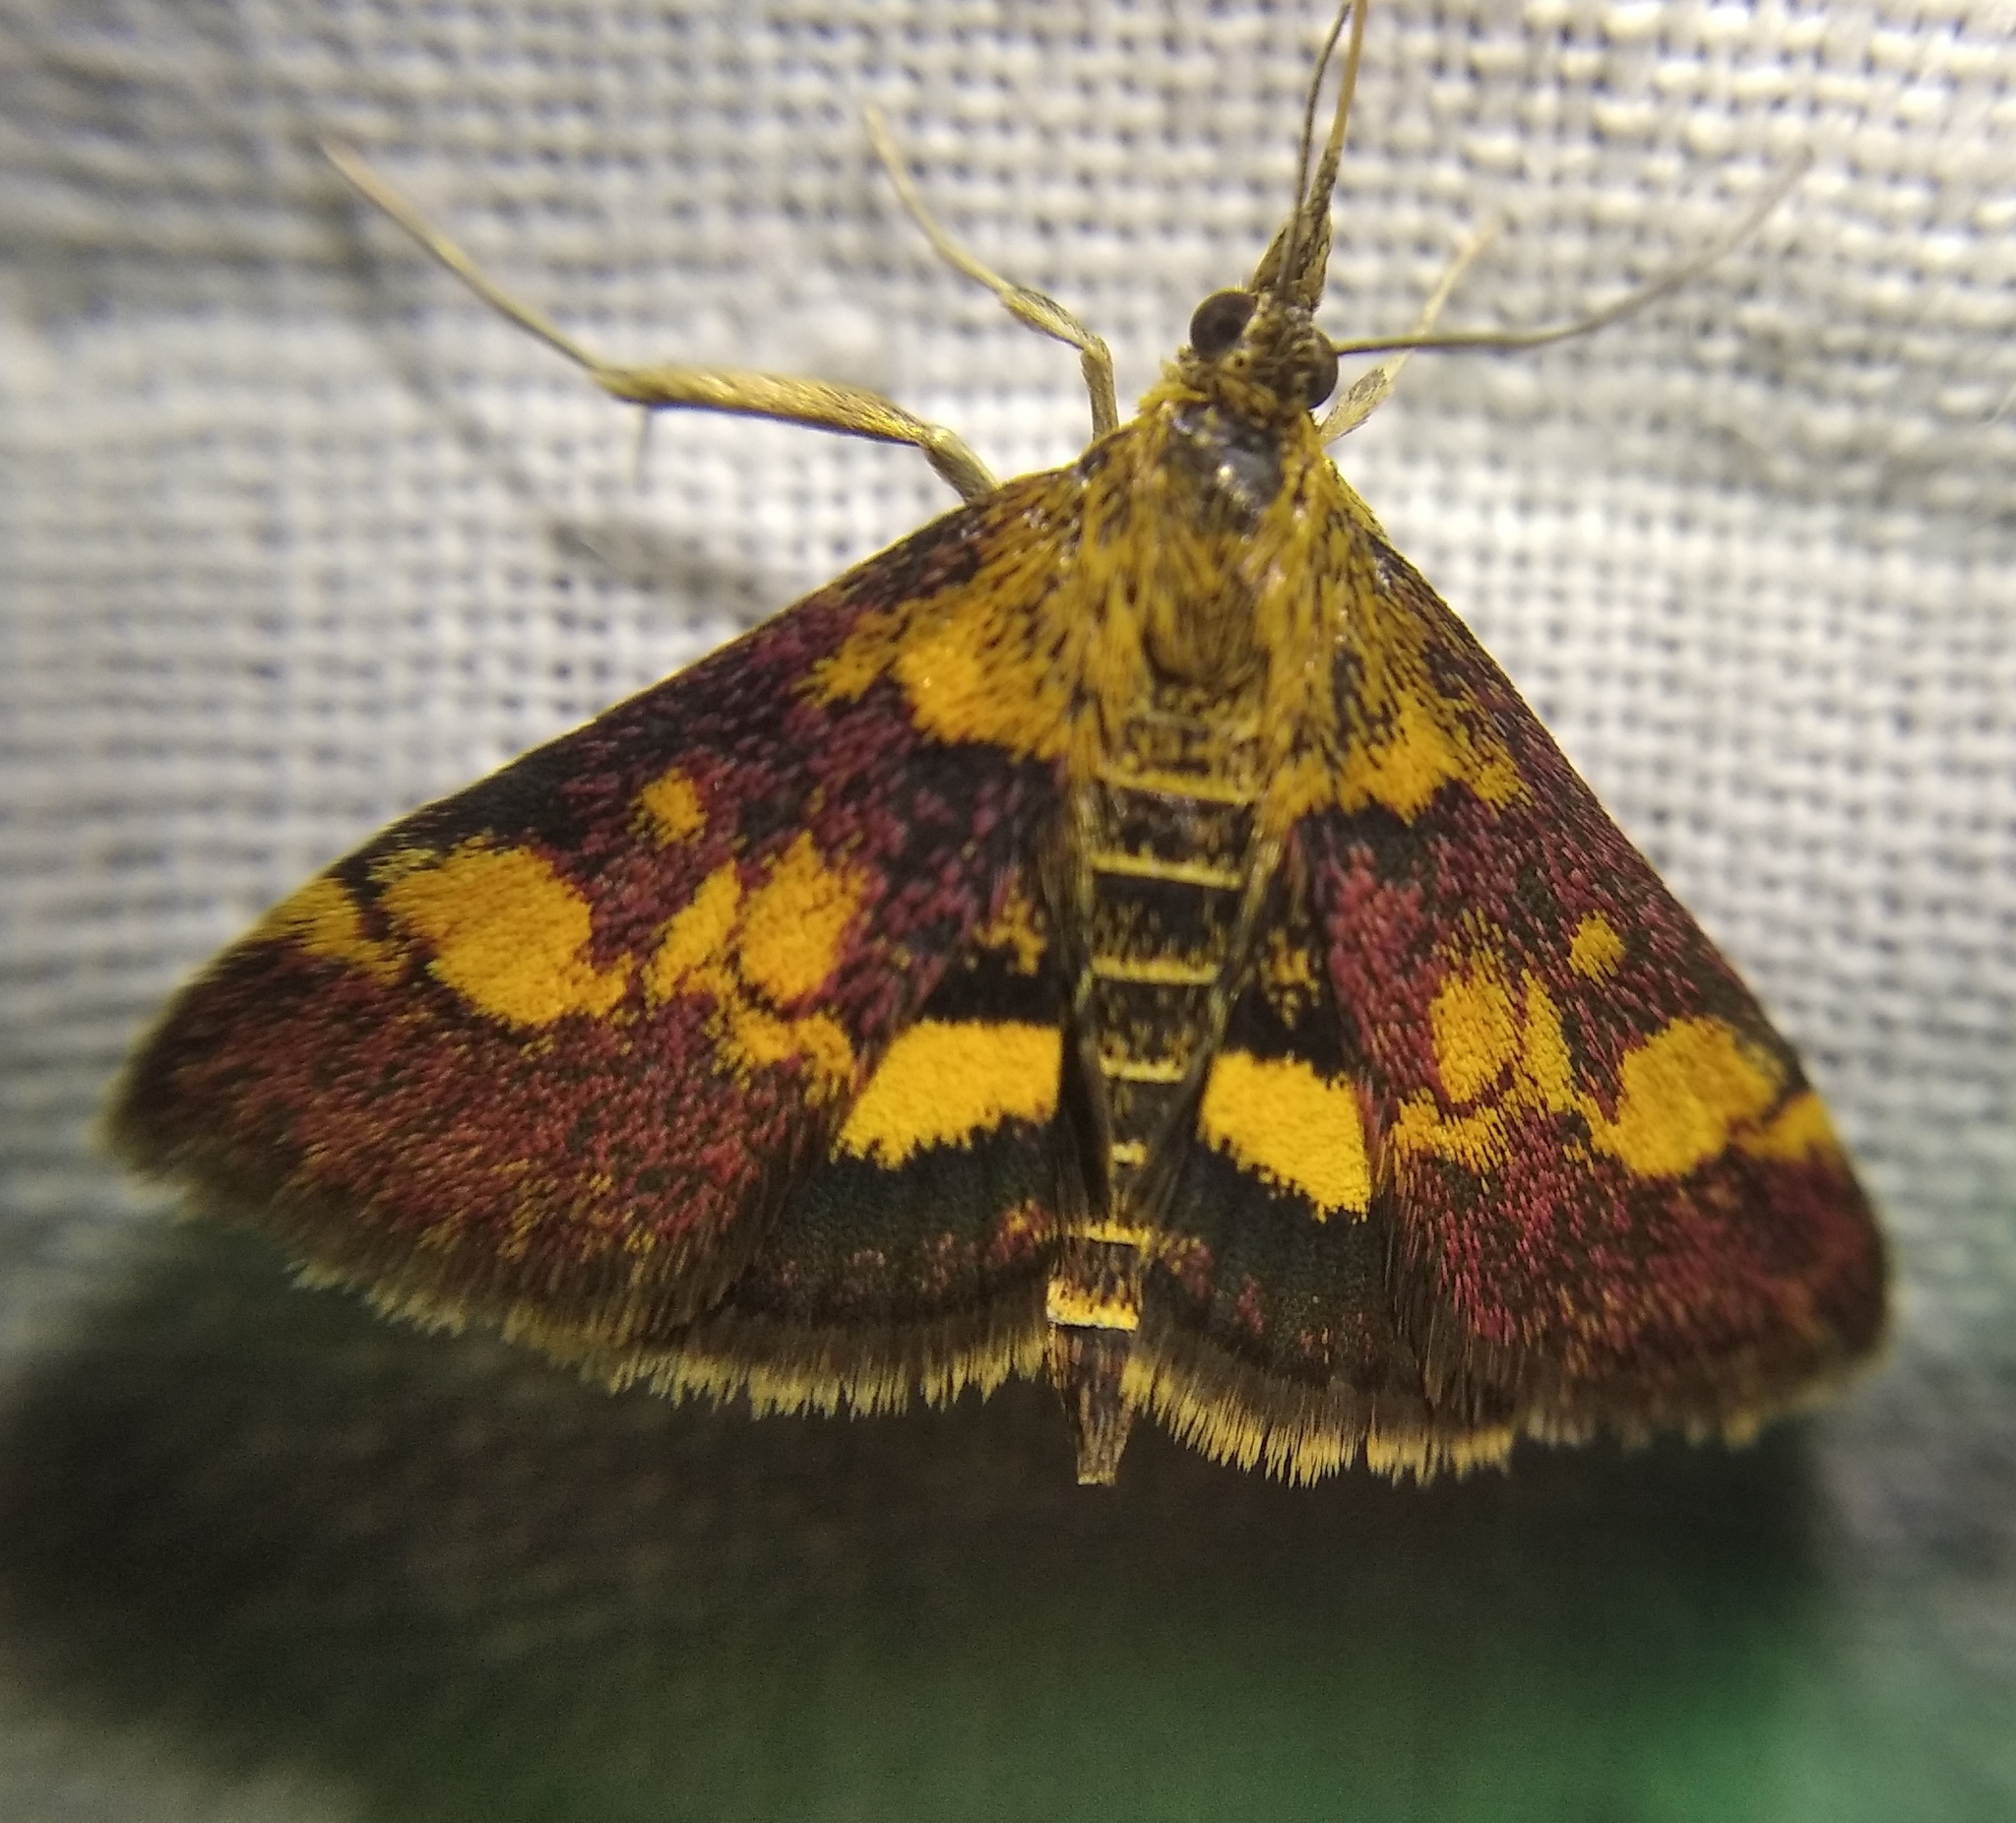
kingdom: Animalia
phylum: Arthropoda
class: Insecta
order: Lepidoptera
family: Crambidae
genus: Pyrausta
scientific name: Pyrausta aurata
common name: Small purple & gold
